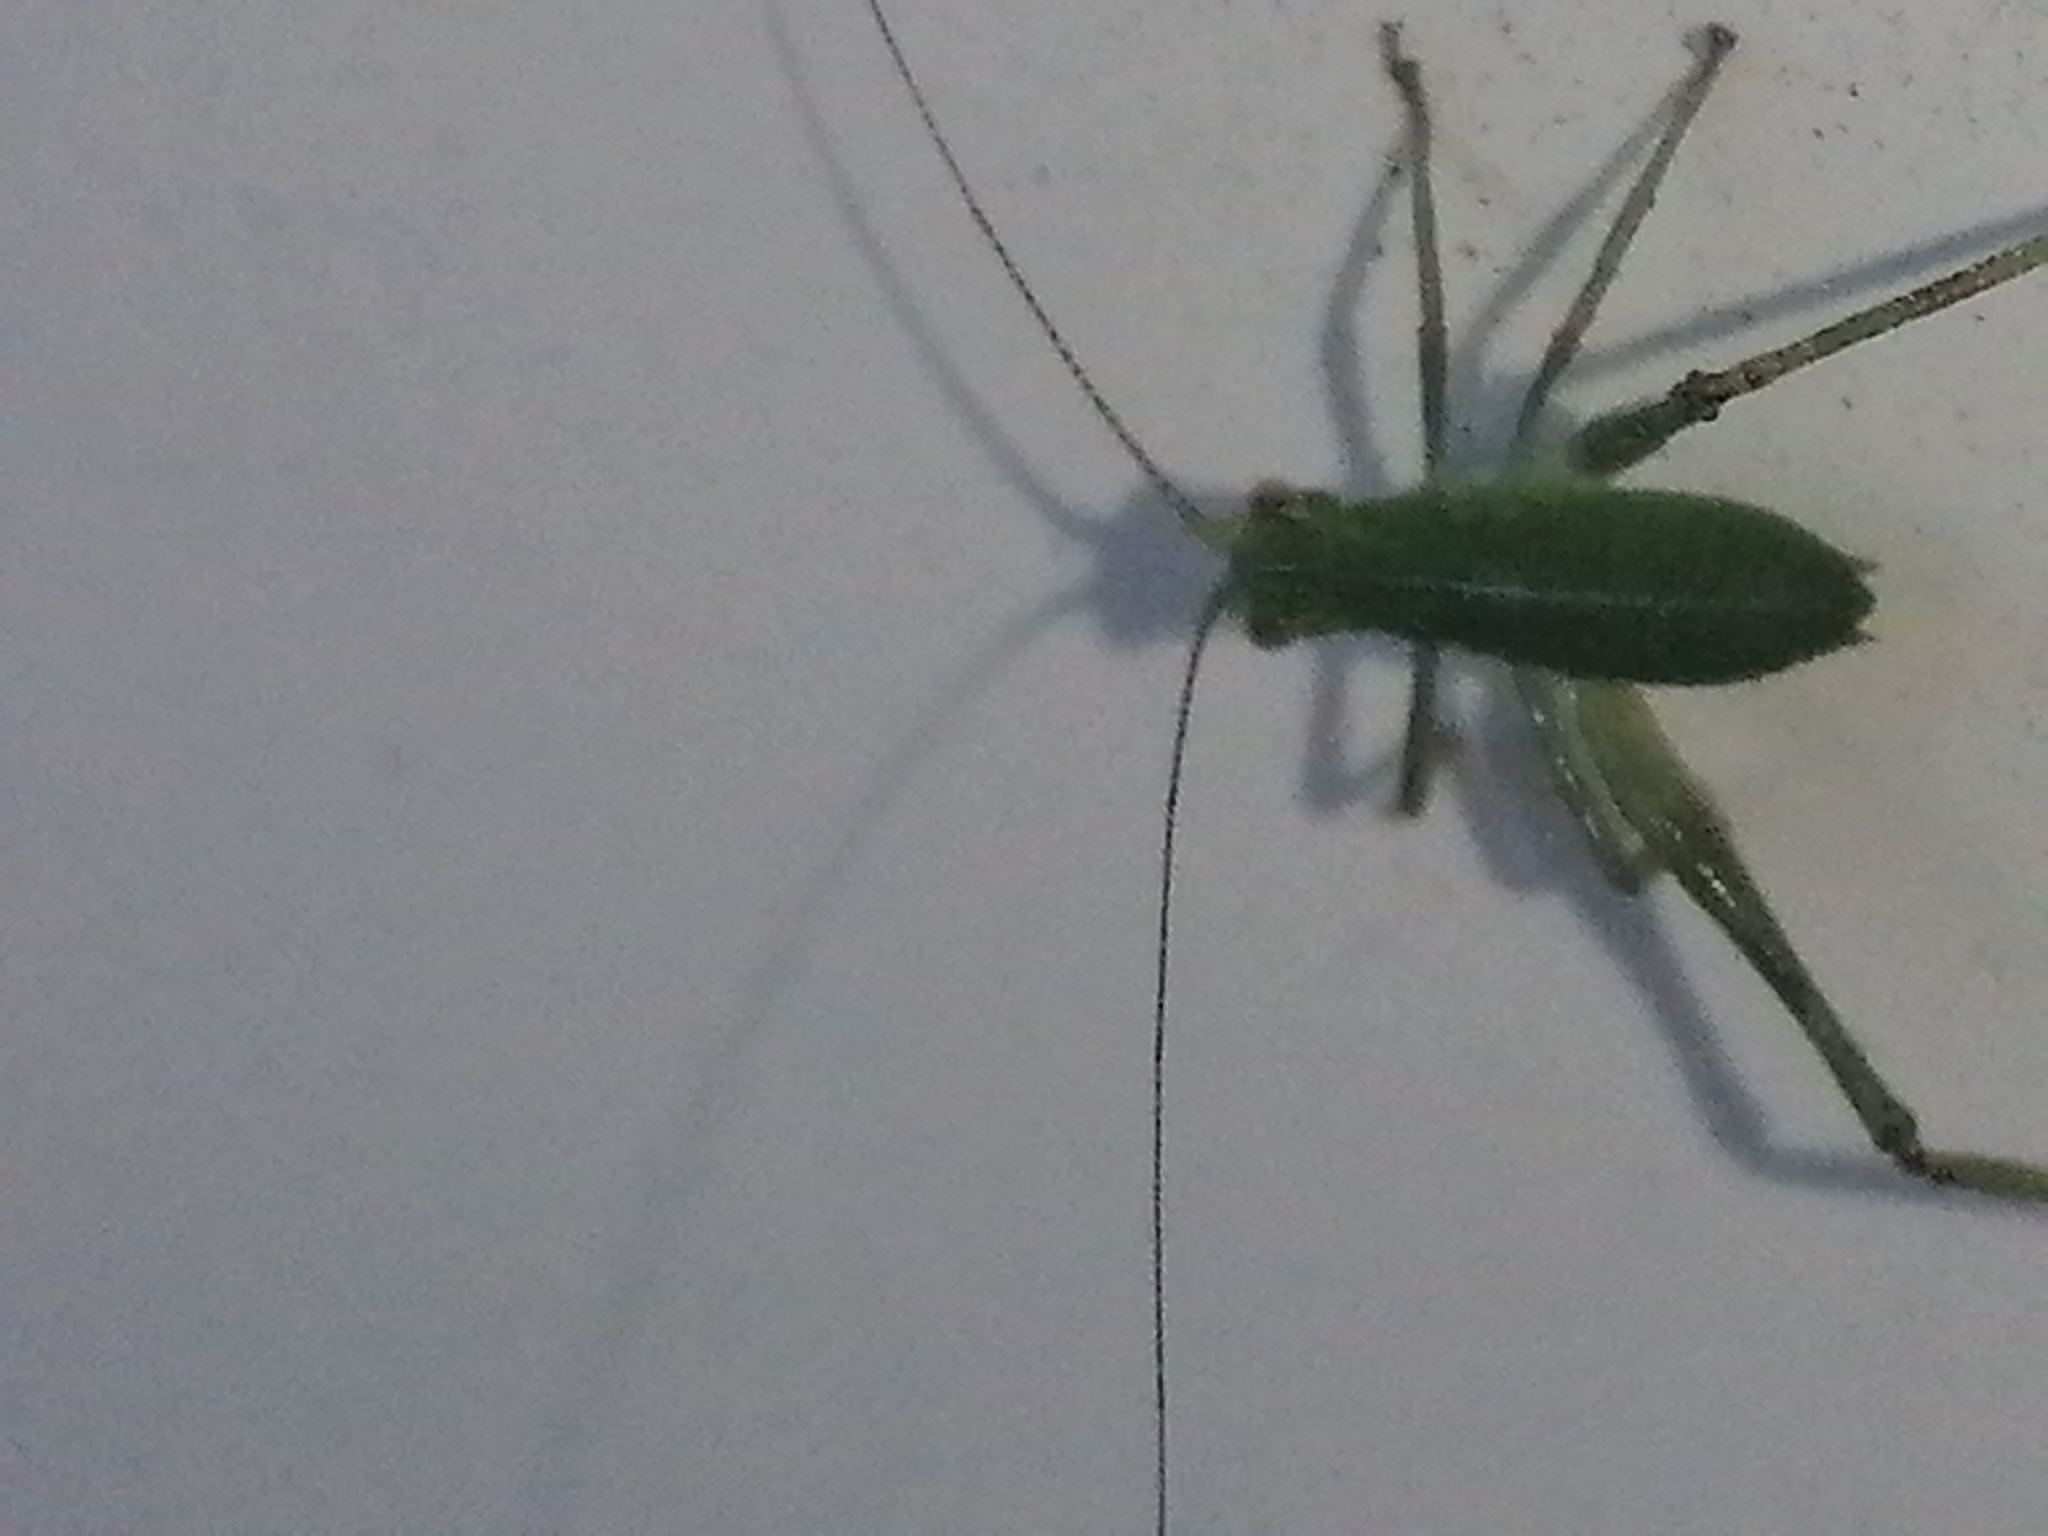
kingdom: Animalia
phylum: Arthropoda
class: Insecta
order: Orthoptera
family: Tettigoniidae
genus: Caedicia
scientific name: Caedicia simplex
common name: Common garden katydid
